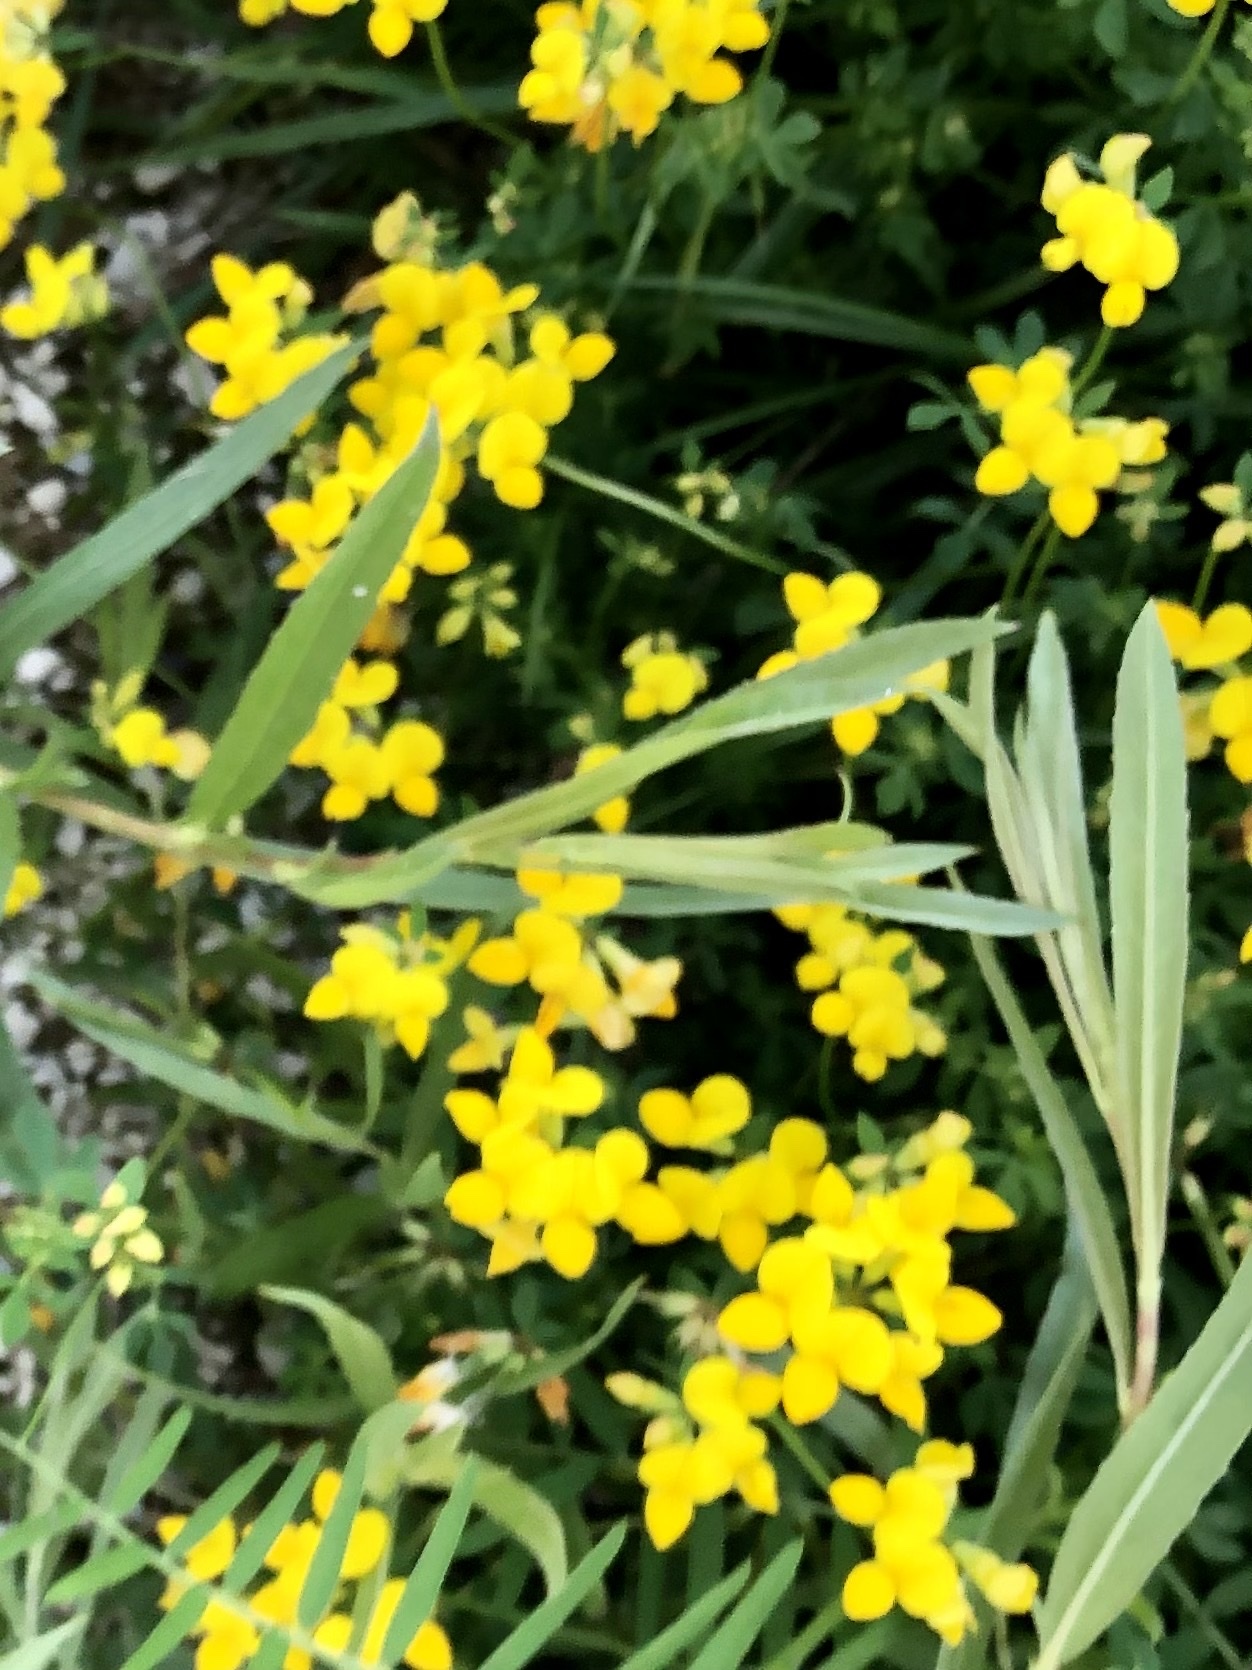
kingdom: Plantae
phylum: Tracheophyta
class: Magnoliopsida
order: Fabales
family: Fabaceae
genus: Lotus
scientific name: Lotus corniculatus
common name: Common bird's-foot-trefoil
